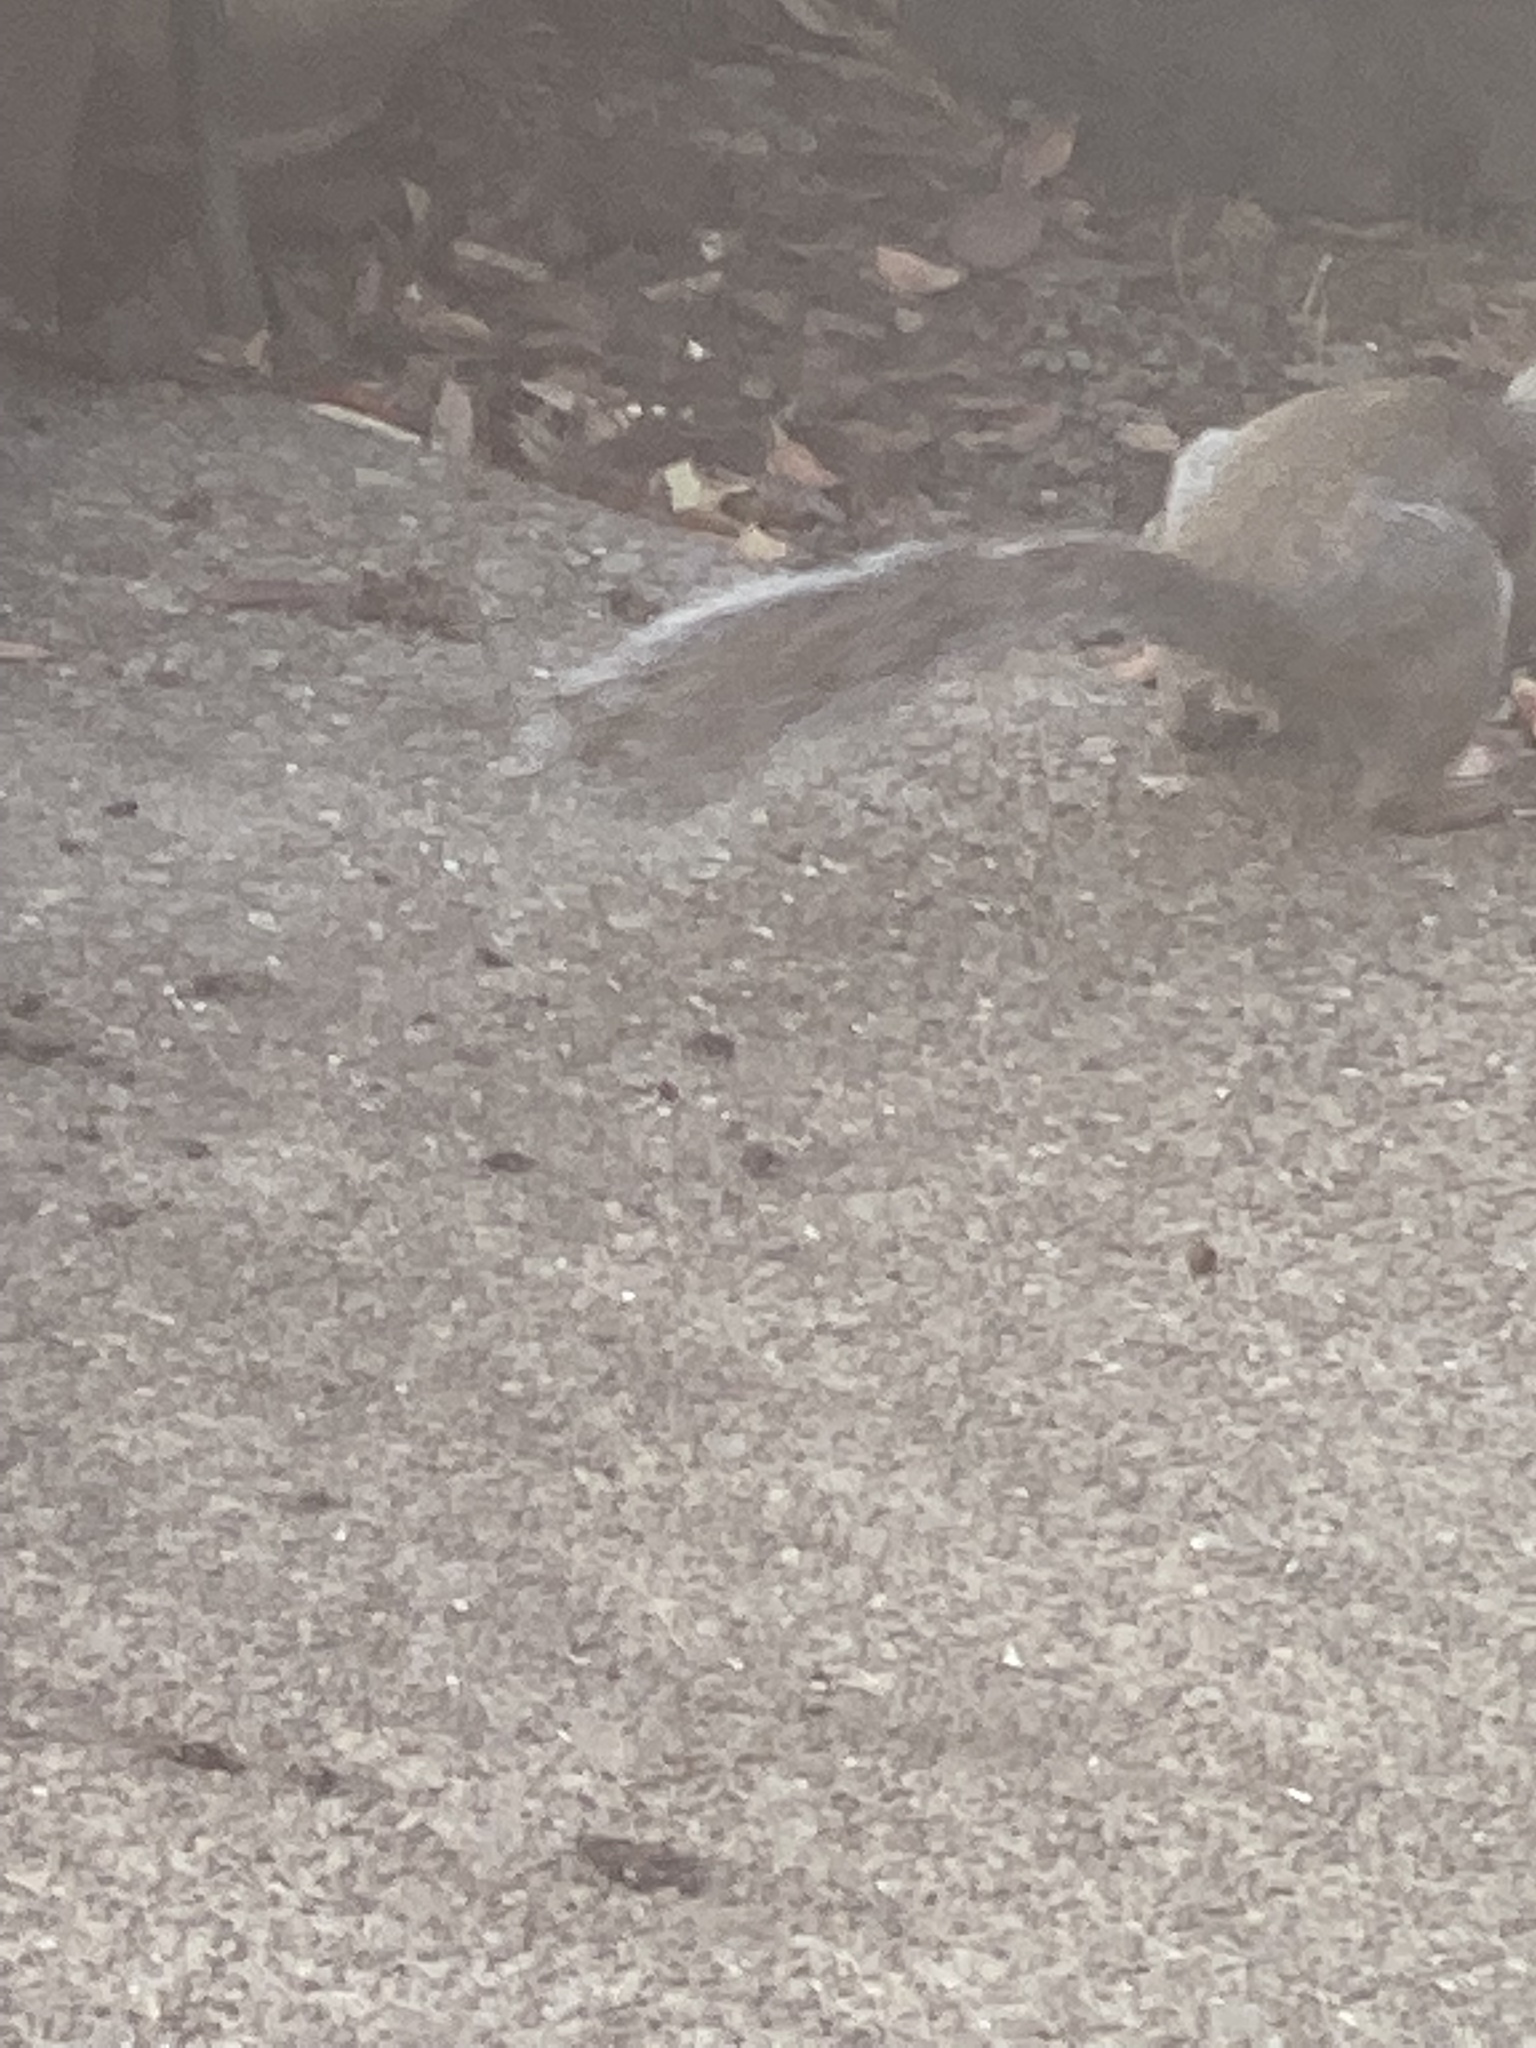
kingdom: Animalia
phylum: Chordata
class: Mammalia
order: Rodentia
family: Sciuridae
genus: Sciurus
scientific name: Sciurus carolinensis
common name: Eastern gray squirrel
